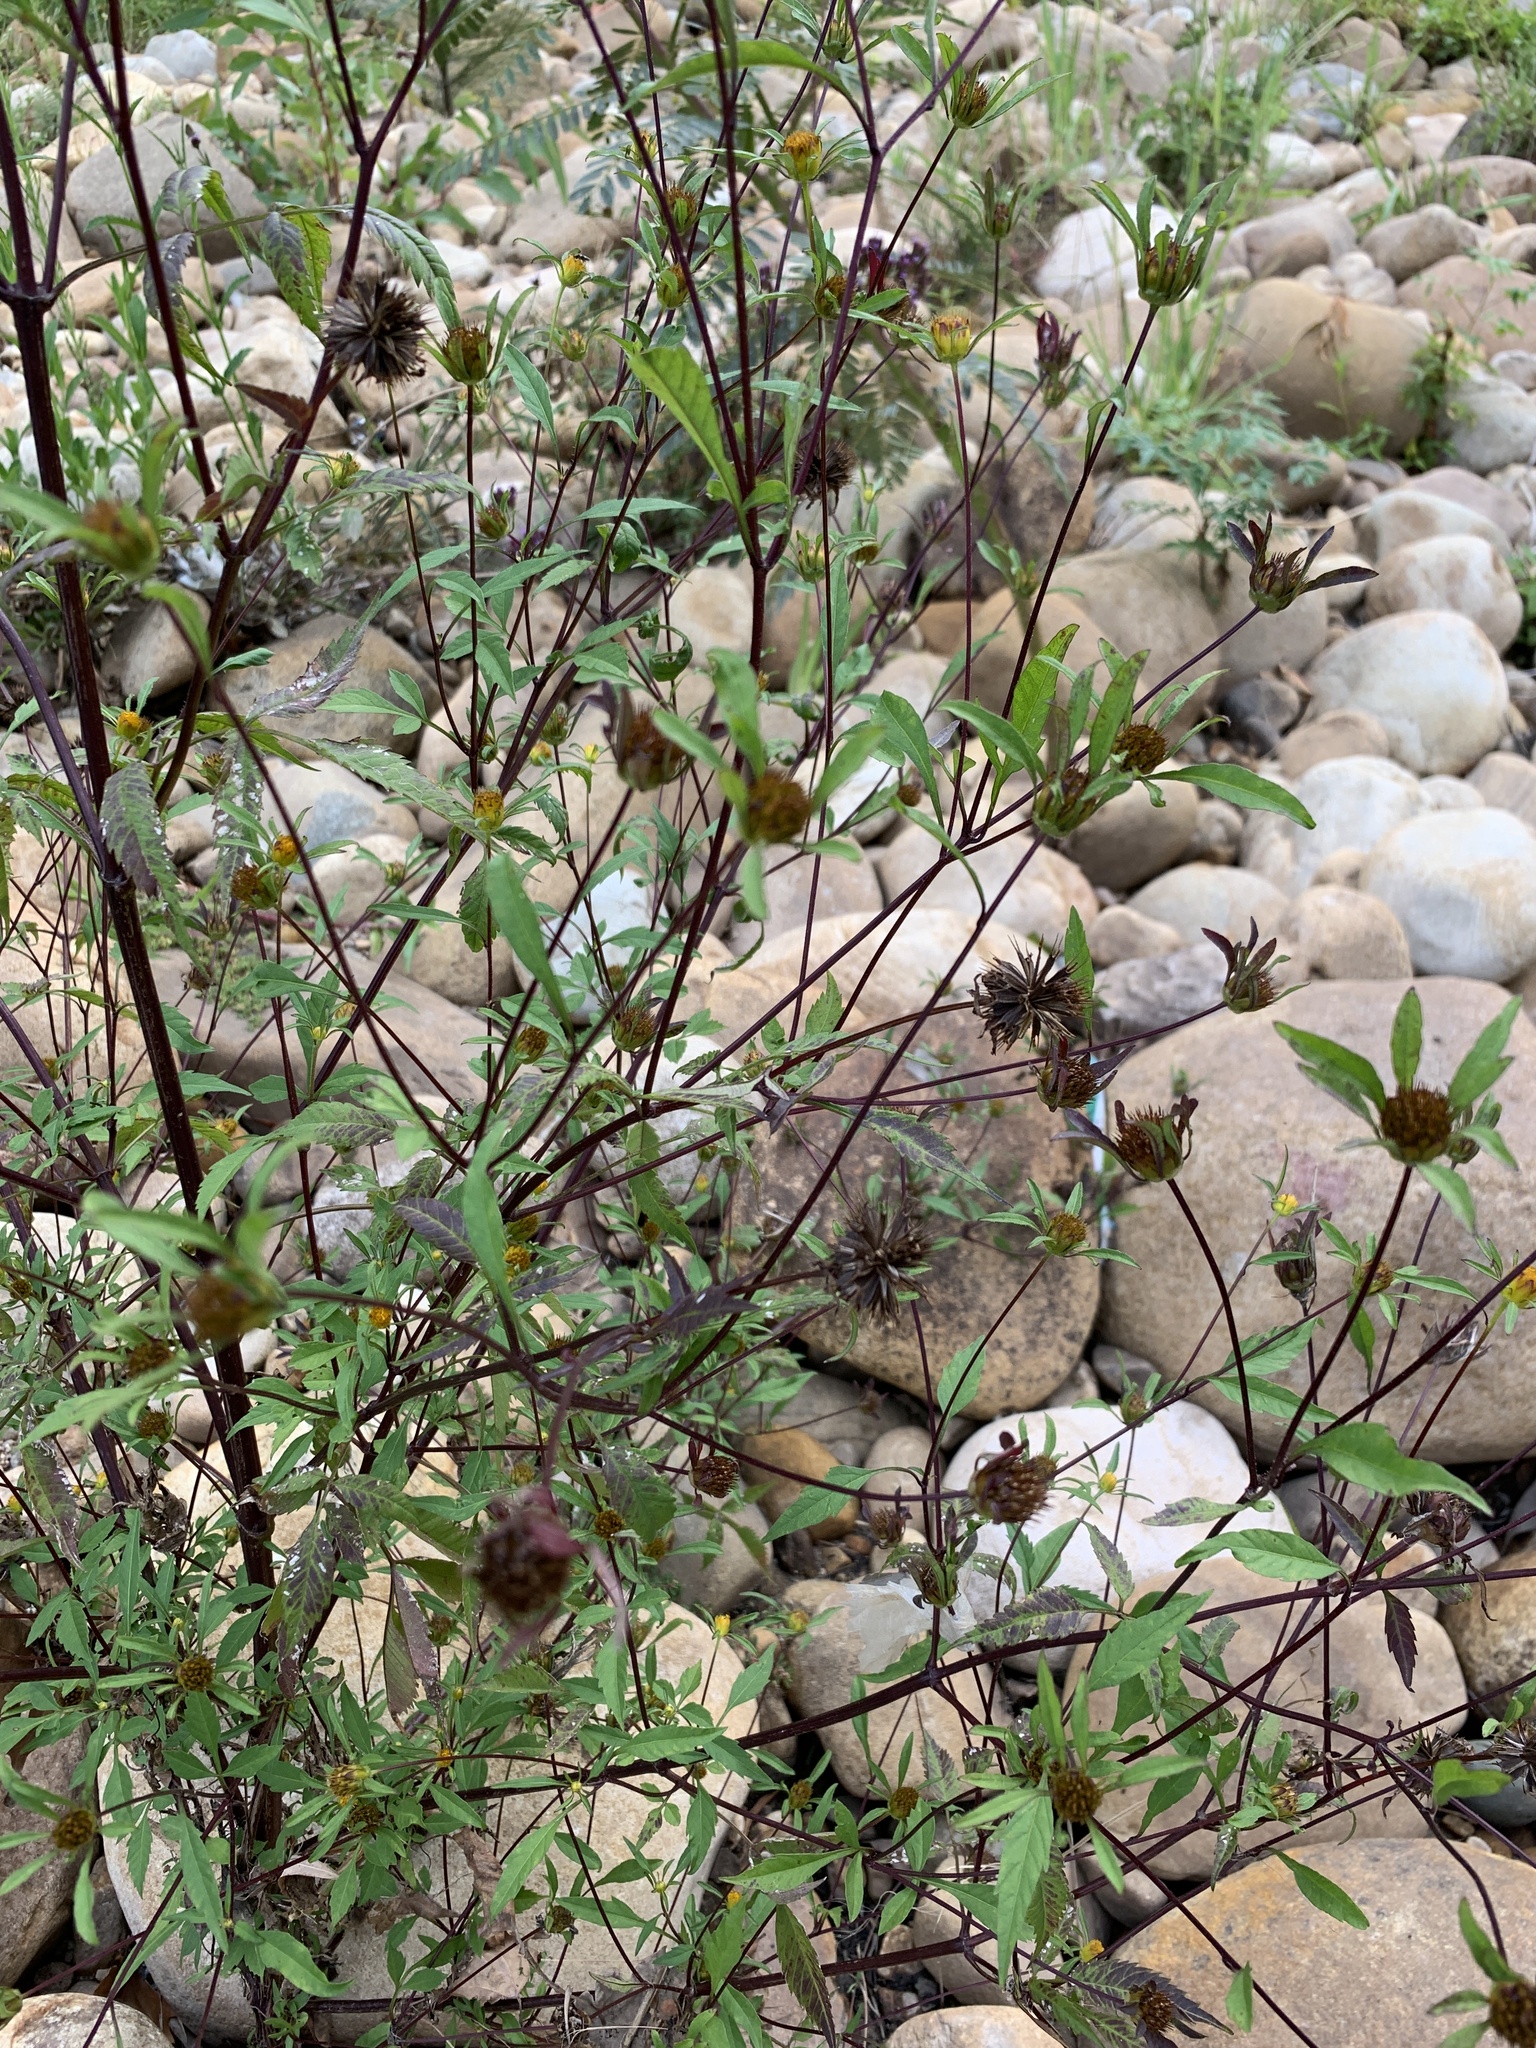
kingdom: Plantae
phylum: Tracheophyta
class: Magnoliopsida
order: Asterales
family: Asteraceae
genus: Bidens
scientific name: Bidens frondosa
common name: Beggarticks
